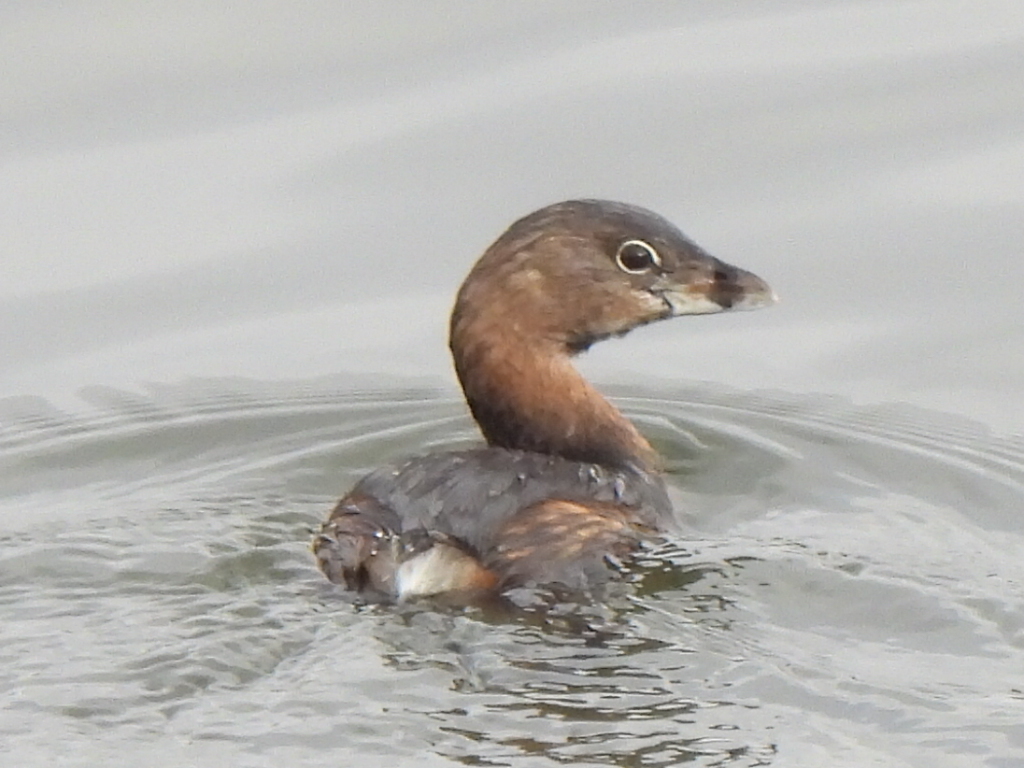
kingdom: Animalia
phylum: Chordata
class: Aves
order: Podicipediformes
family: Podicipedidae
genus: Podilymbus
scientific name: Podilymbus podiceps
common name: Pied-billed grebe
